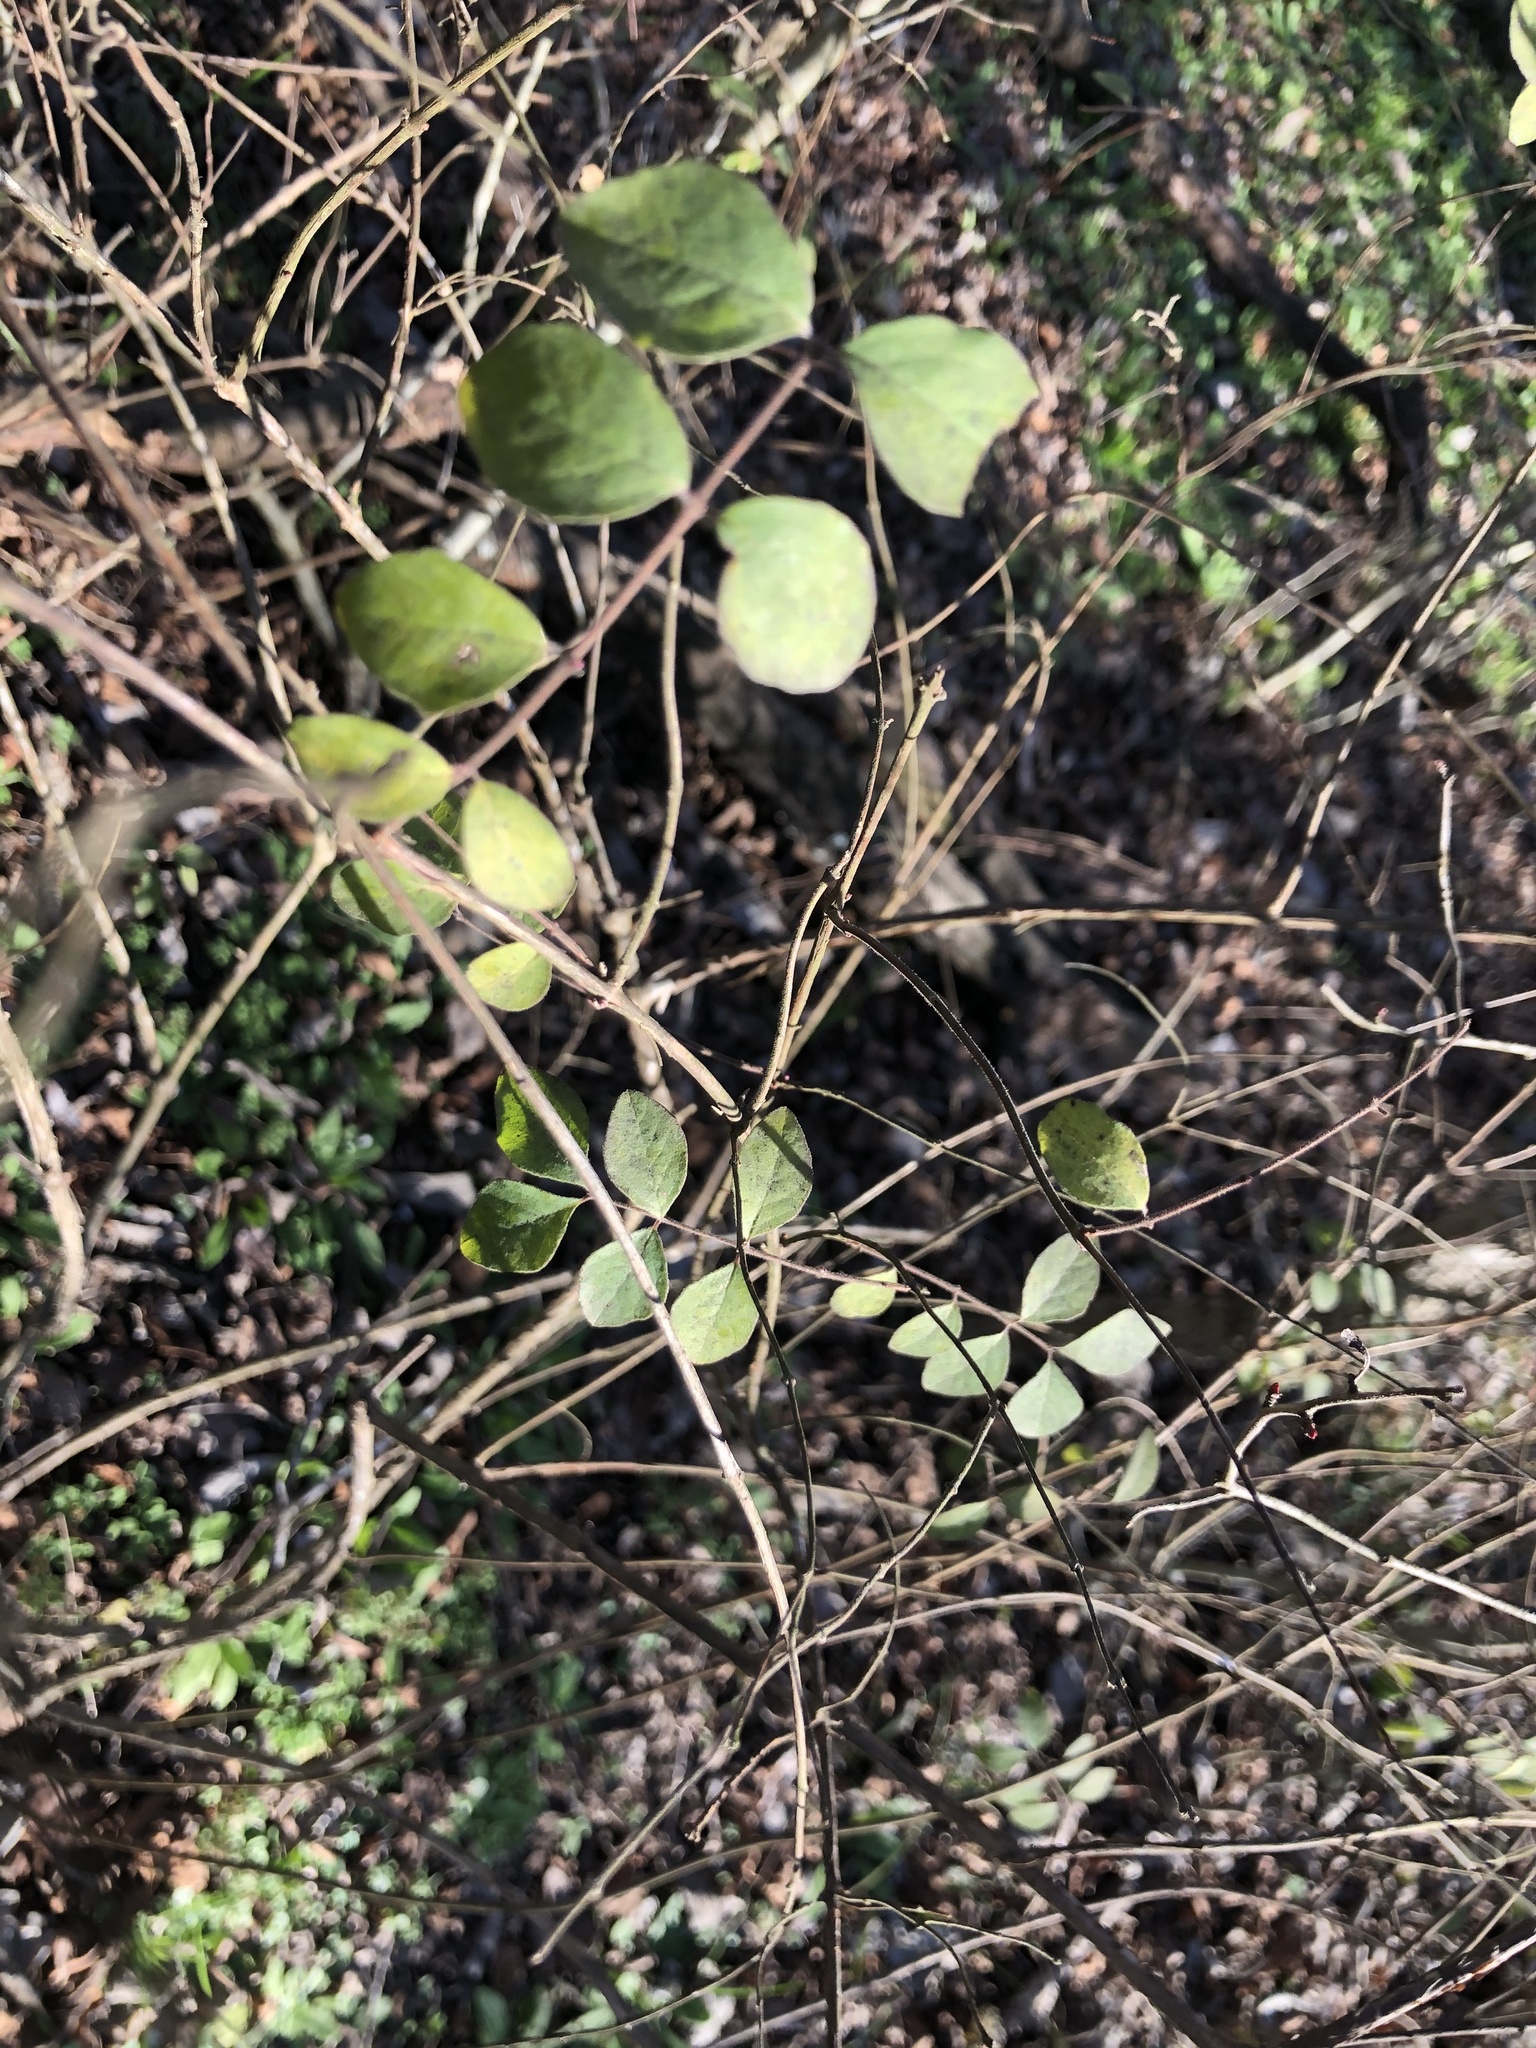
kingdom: Plantae
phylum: Tracheophyta
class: Magnoliopsida
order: Dipsacales
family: Caprifoliaceae
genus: Symphoricarpos
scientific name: Symphoricarpos orbiculatus
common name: Coralberry
